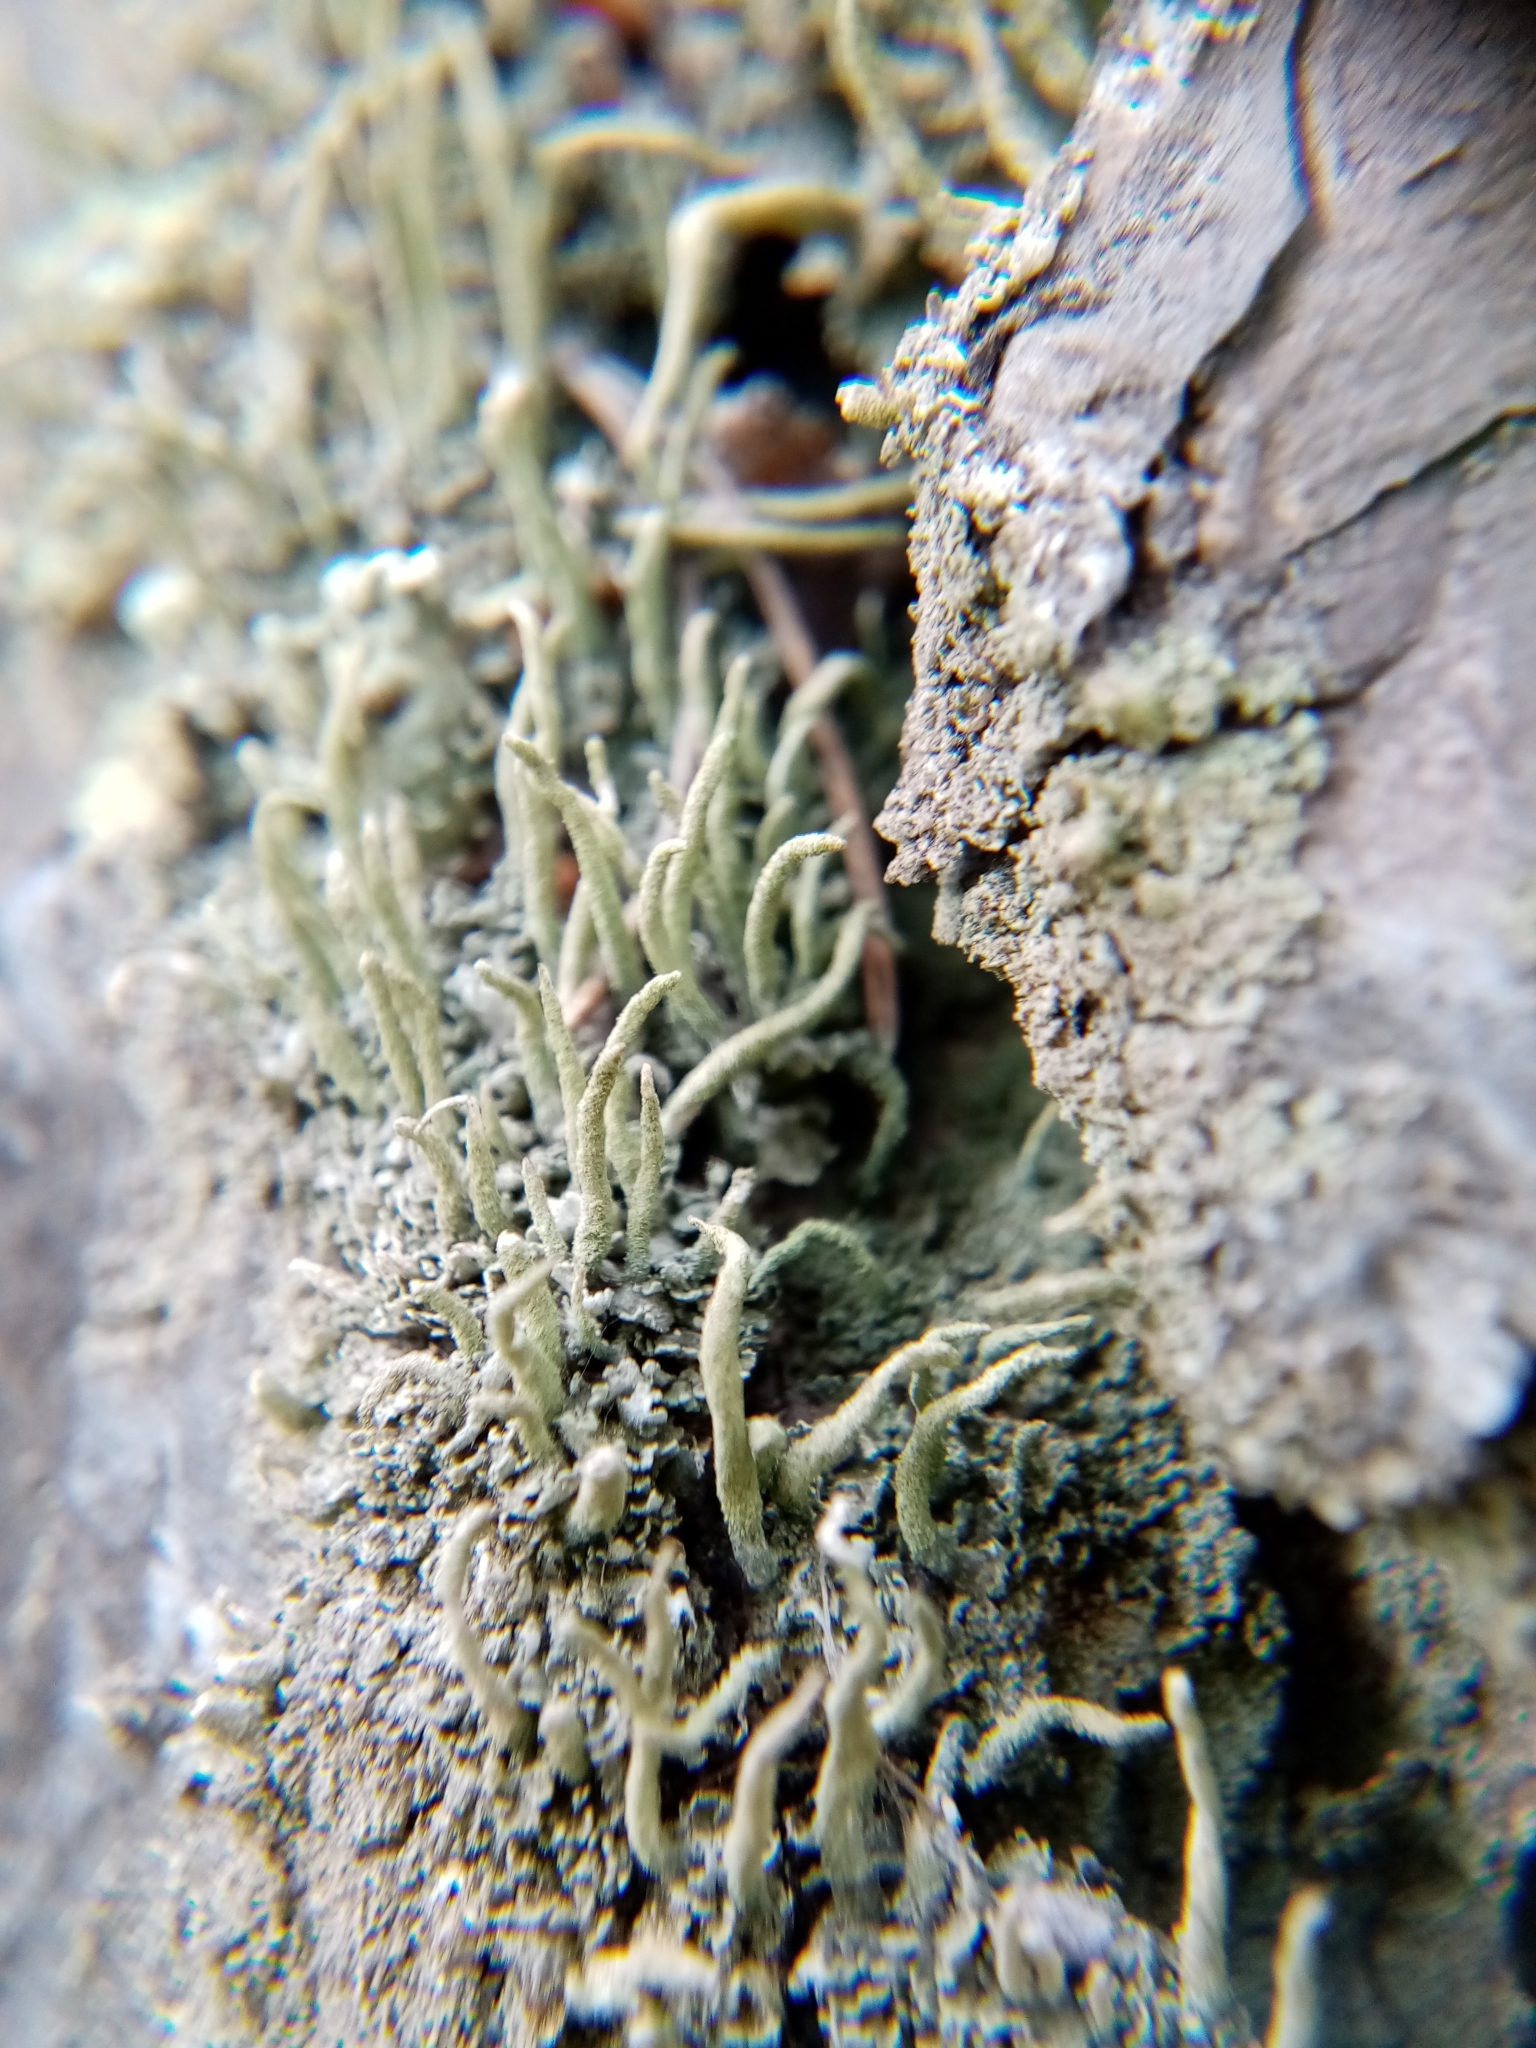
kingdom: Fungi
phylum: Ascomycota
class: Lecanoromycetes
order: Lecanorales
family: Cladoniaceae
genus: Cladonia
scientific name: Cladonia coniocraea
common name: Common powderhorn
